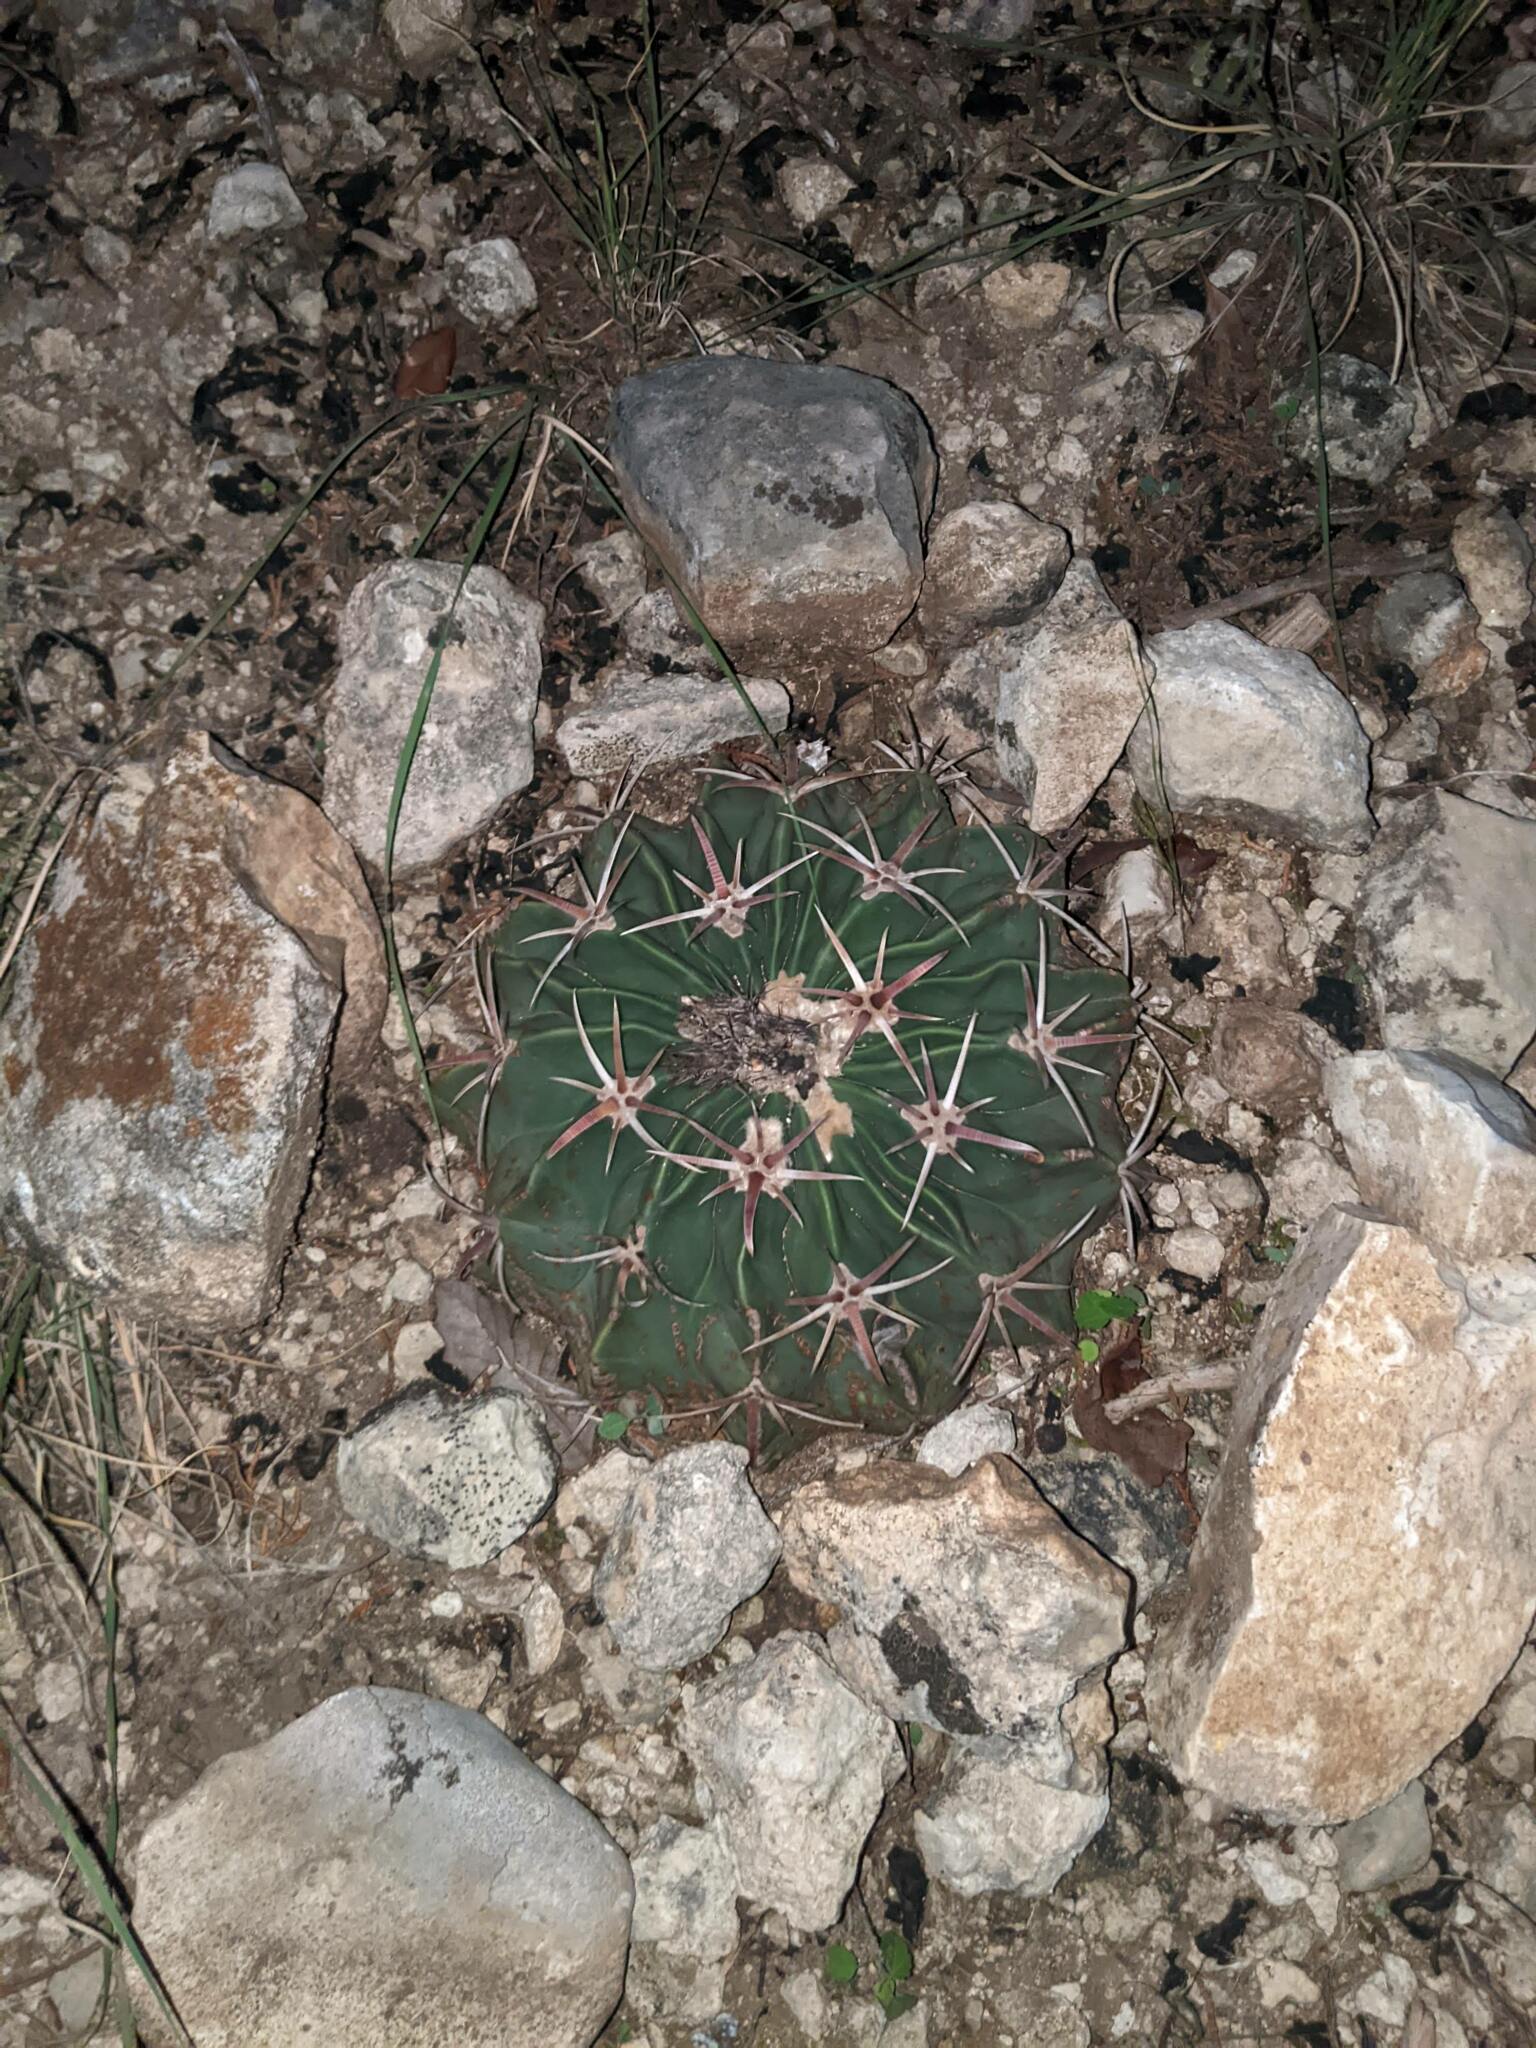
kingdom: Plantae
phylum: Tracheophyta
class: Magnoliopsida
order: Caryophyllales
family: Cactaceae
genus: Echinocactus
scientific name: Echinocactus texensis
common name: Devil's pincushion
